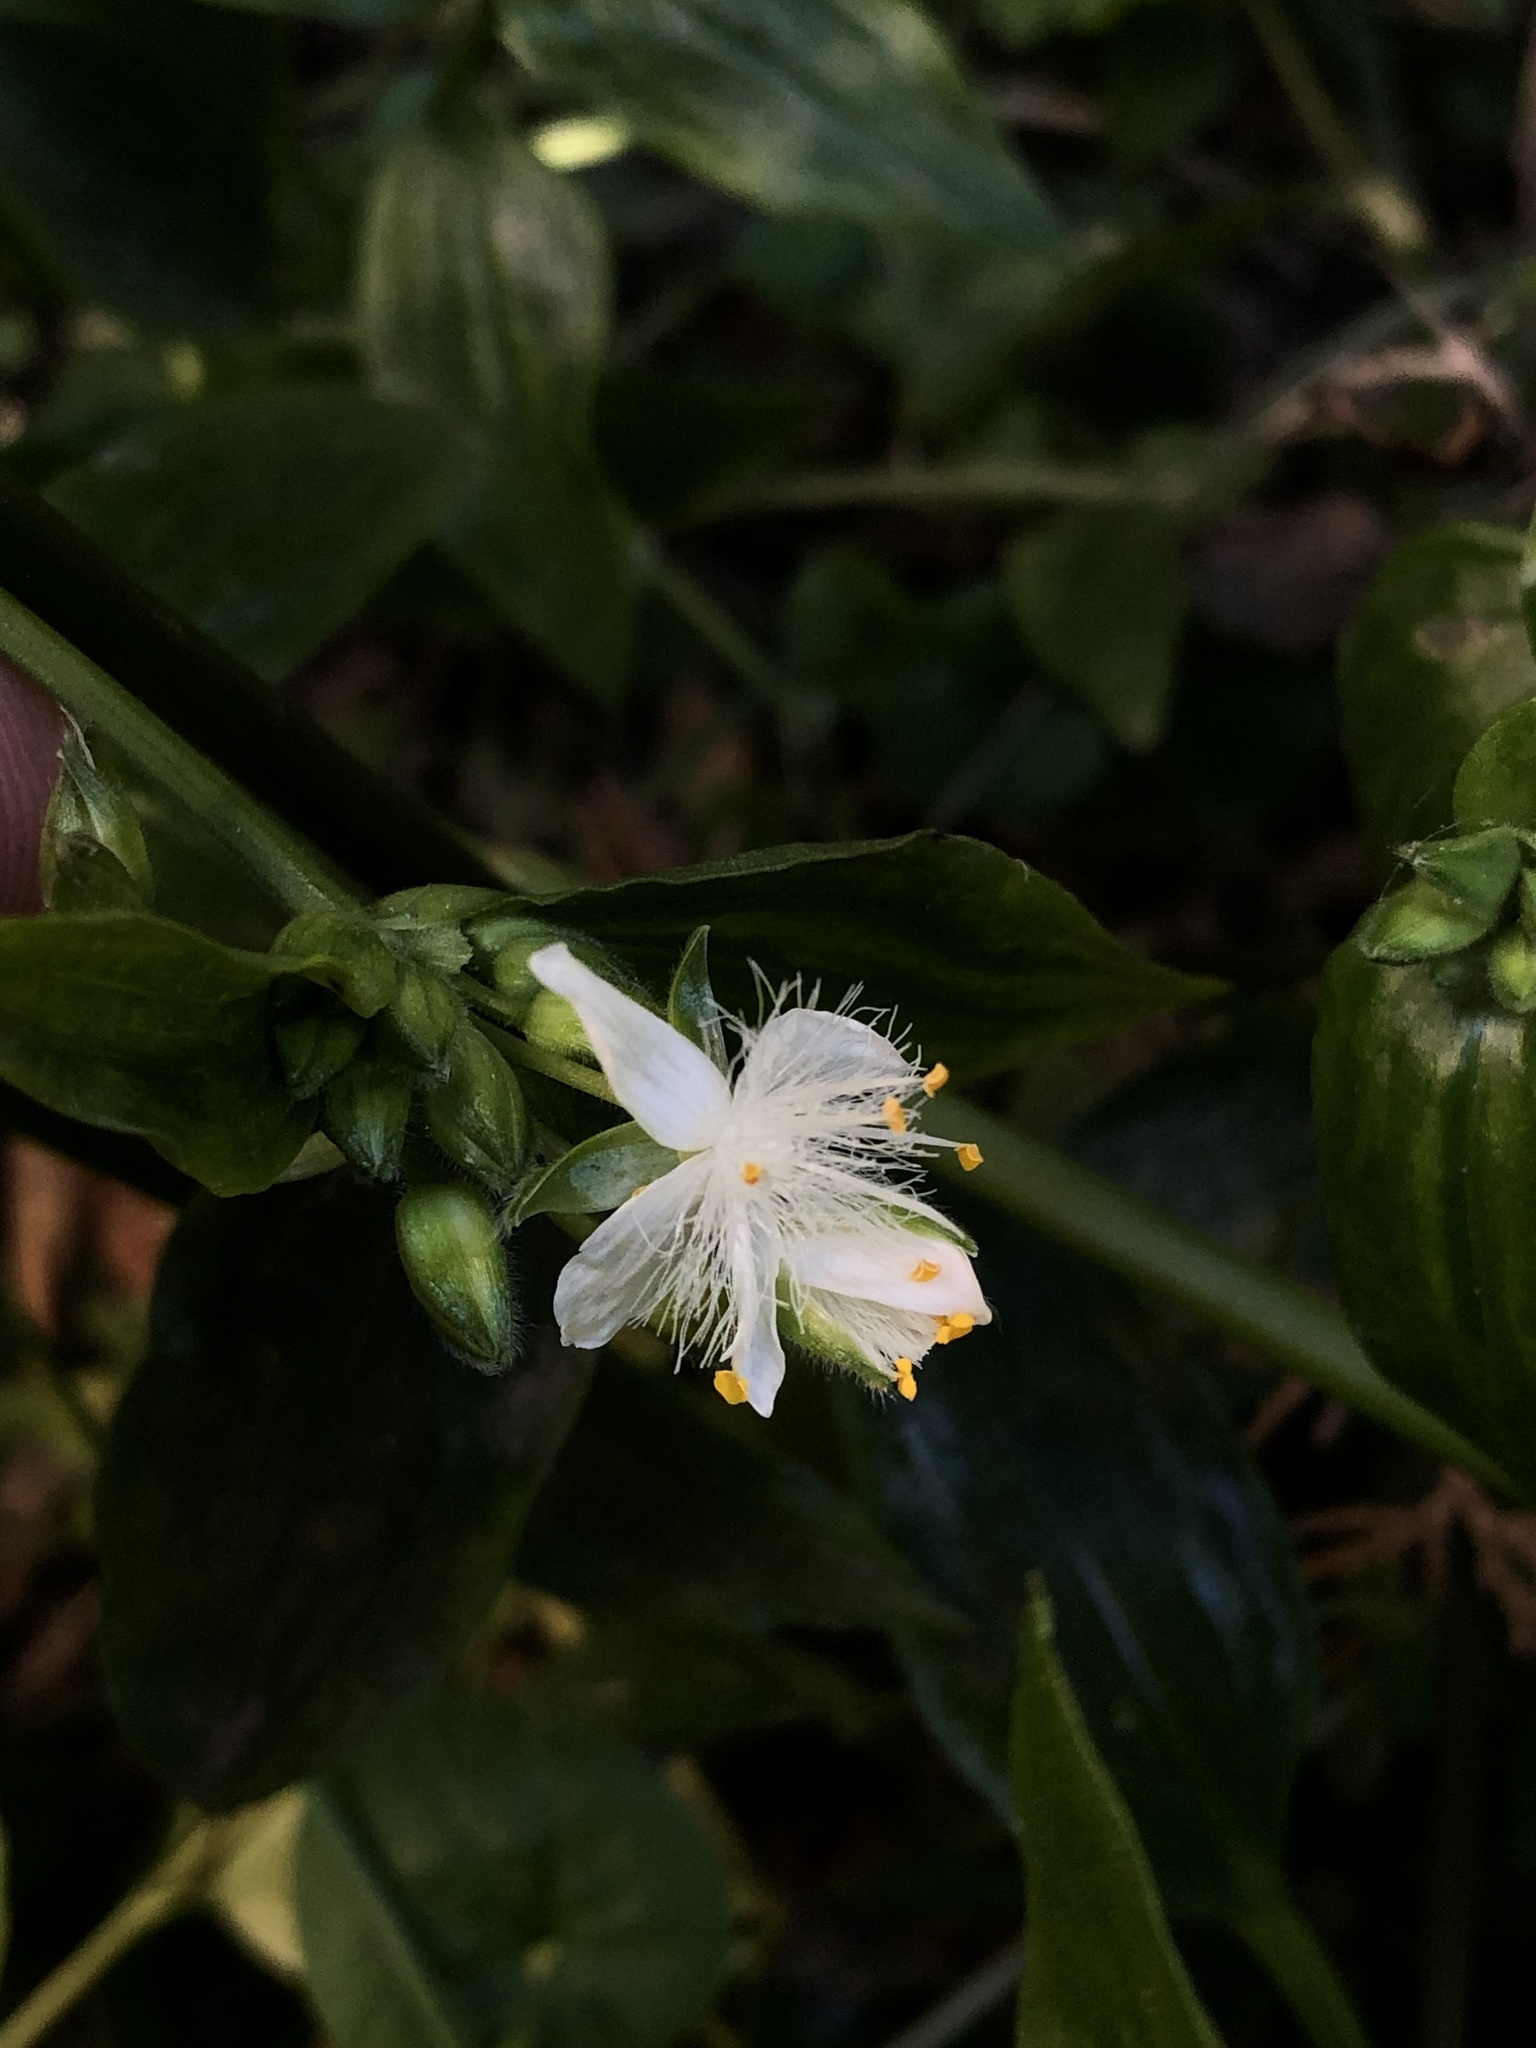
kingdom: Plantae
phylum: Tracheophyta
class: Liliopsida
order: Commelinales
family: Commelinaceae
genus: Tradescantia
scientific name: Tradescantia fluminensis
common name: Wandering-jew
